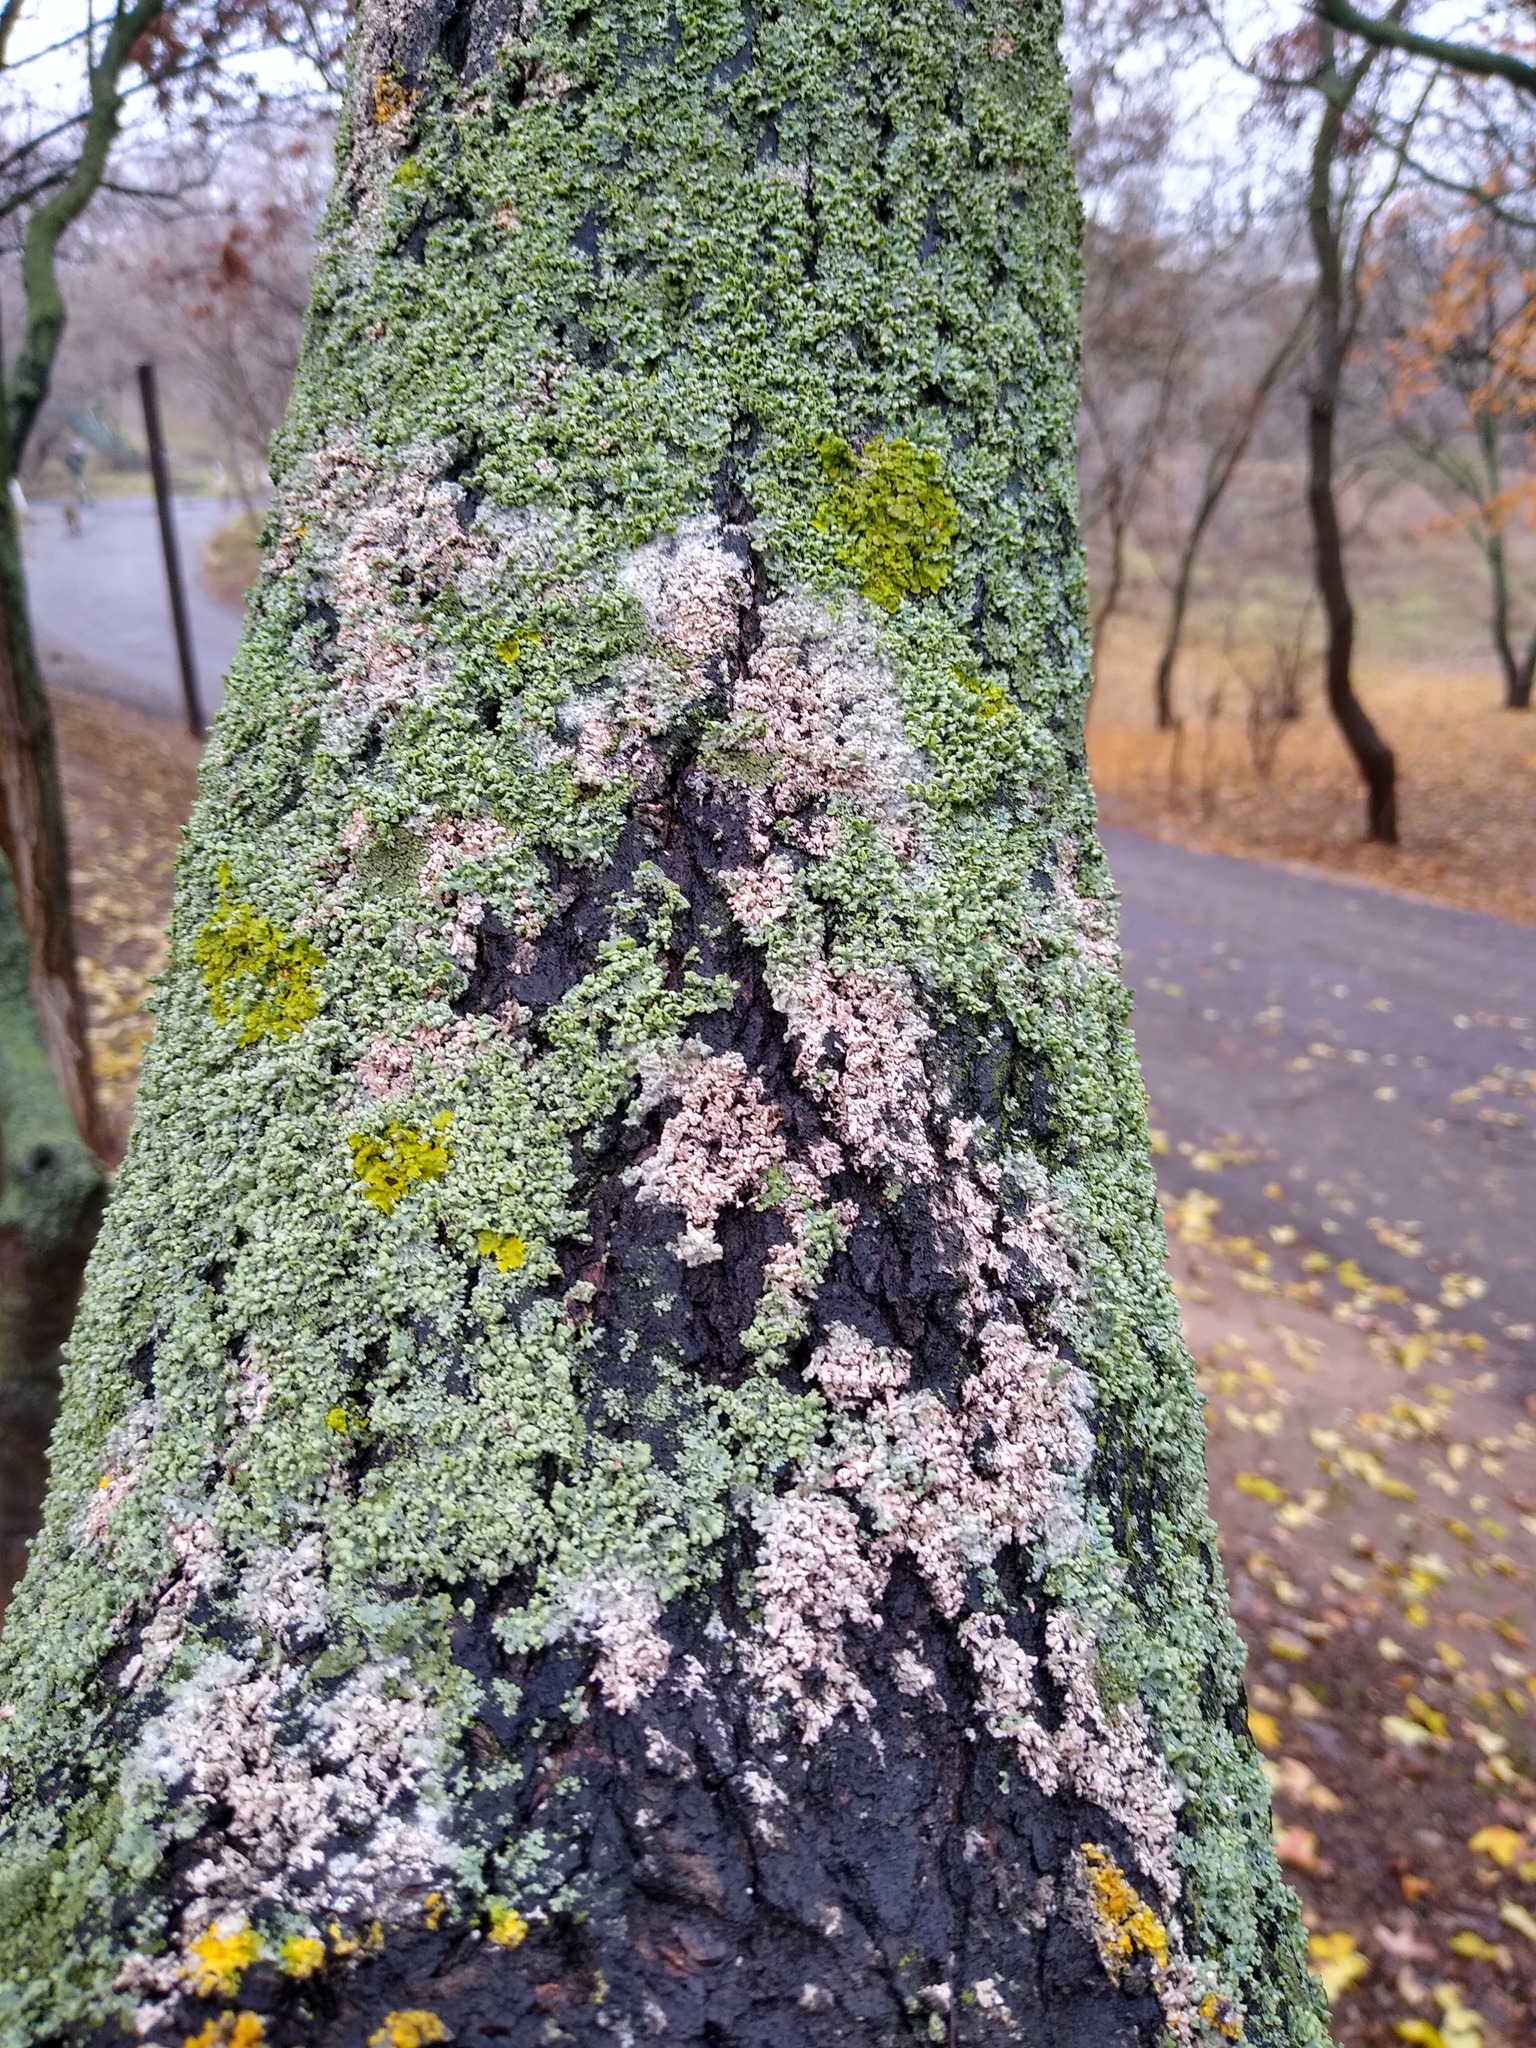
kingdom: Fungi
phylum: Basidiomycota
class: Agaricomycetes
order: Atheliales
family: Atheliaceae
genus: Athelia
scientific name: Athelia arachnoidea
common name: Candelabra duster
